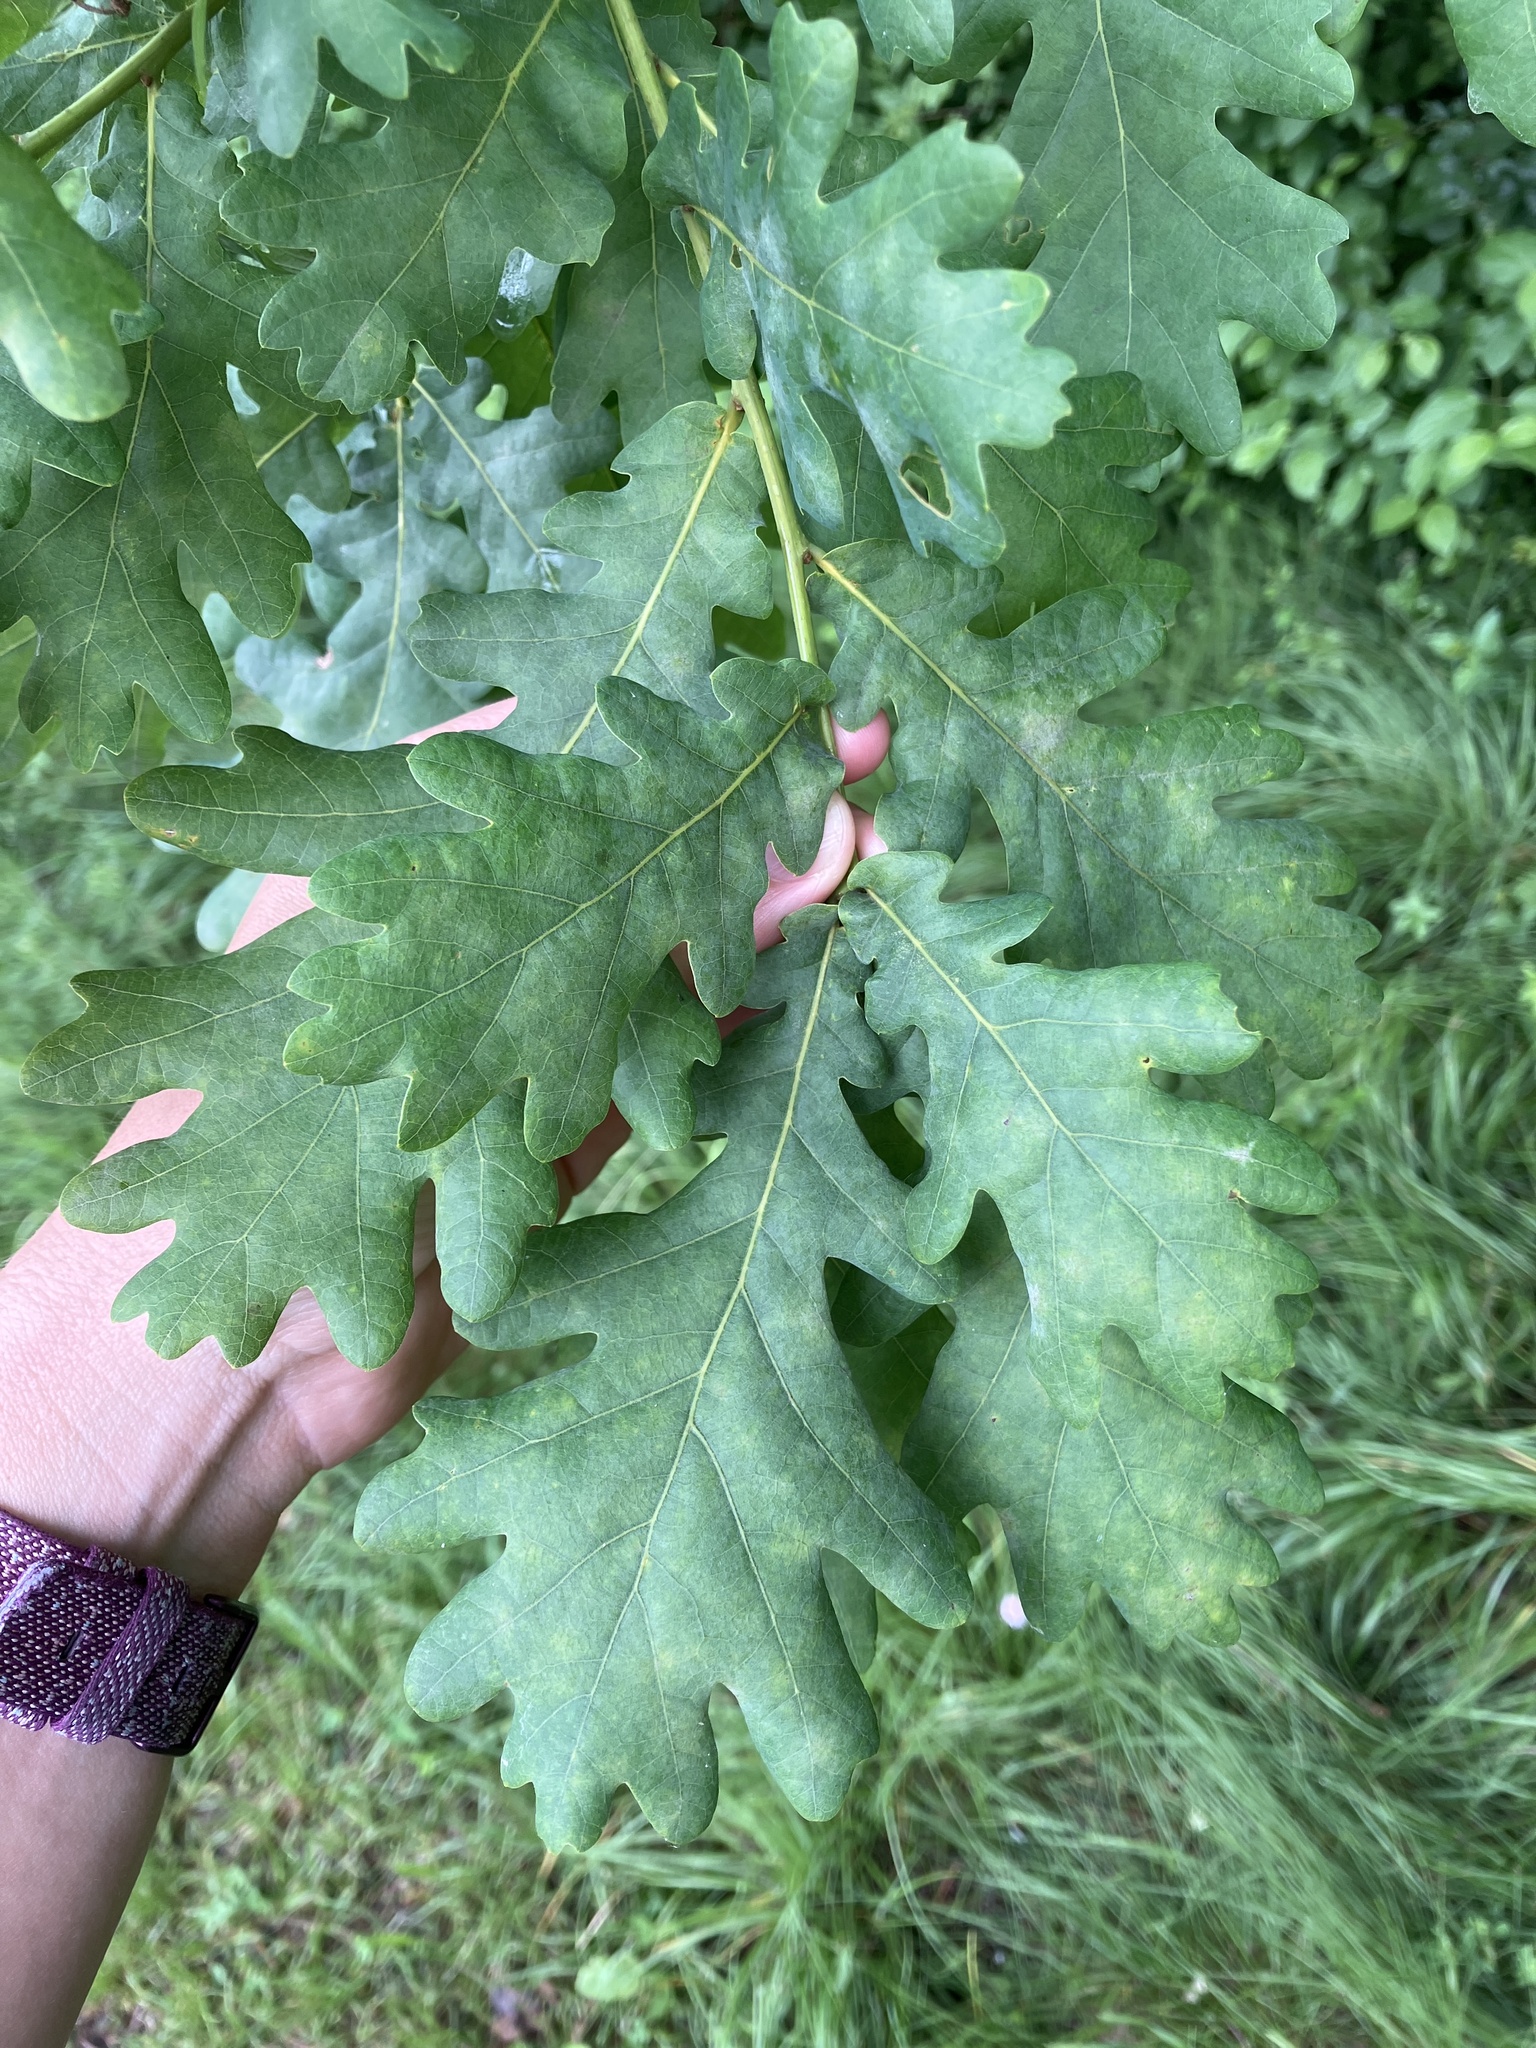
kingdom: Plantae
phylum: Tracheophyta
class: Magnoliopsida
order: Fagales
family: Fagaceae
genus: Quercus
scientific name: Quercus robur
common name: Pedunculate oak
